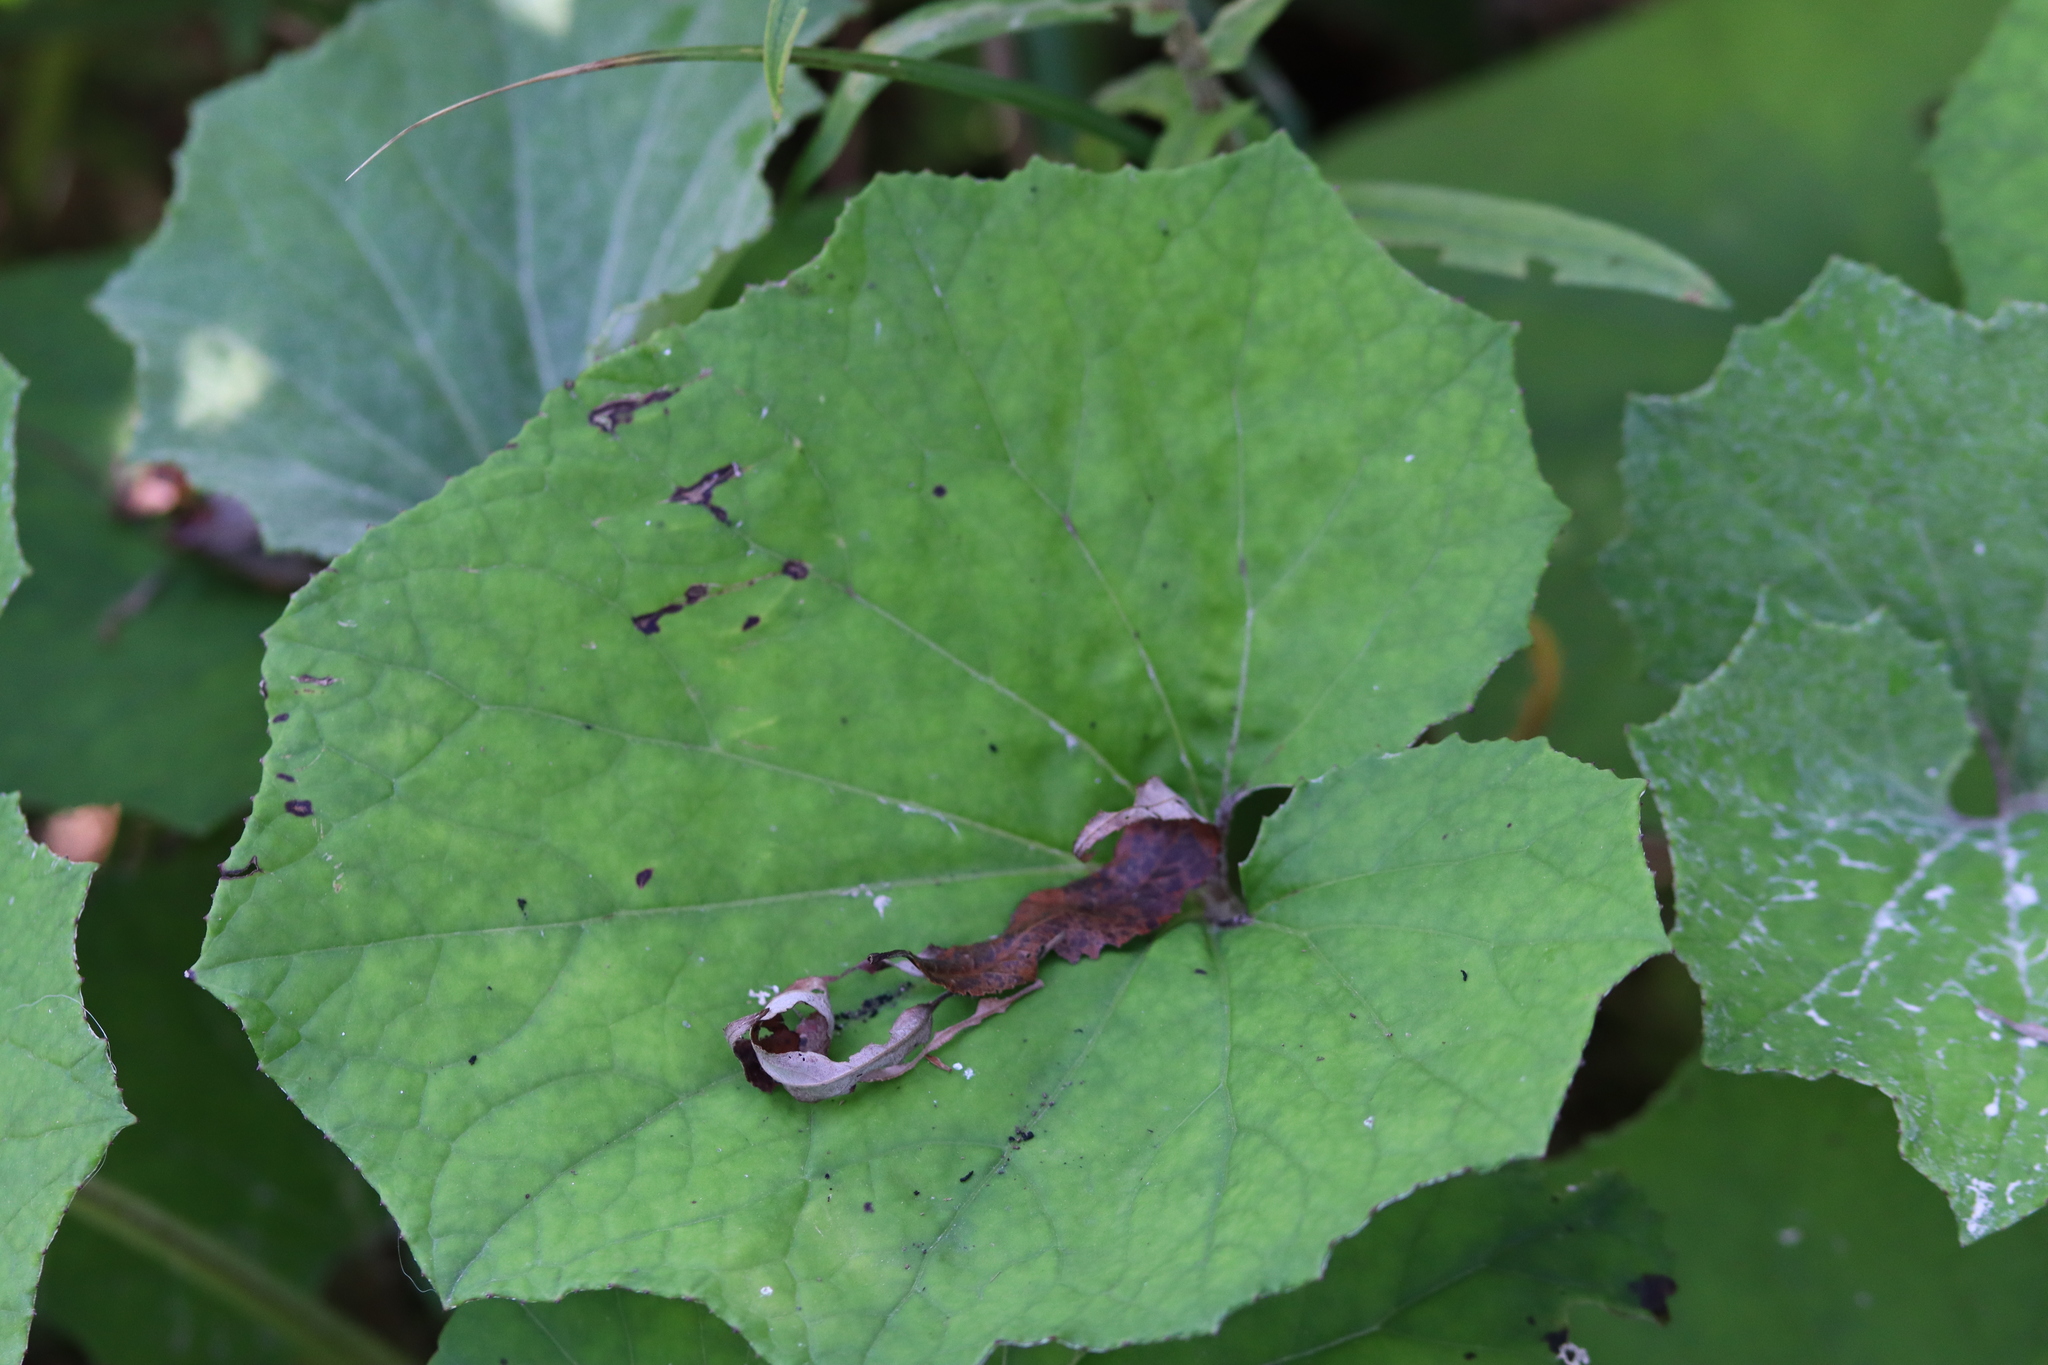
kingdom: Plantae
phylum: Tracheophyta
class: Magnoliopsida
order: Asterales
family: Asteraceae
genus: Tussilago
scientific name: Tussilago farfara
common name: Coltsfoot
